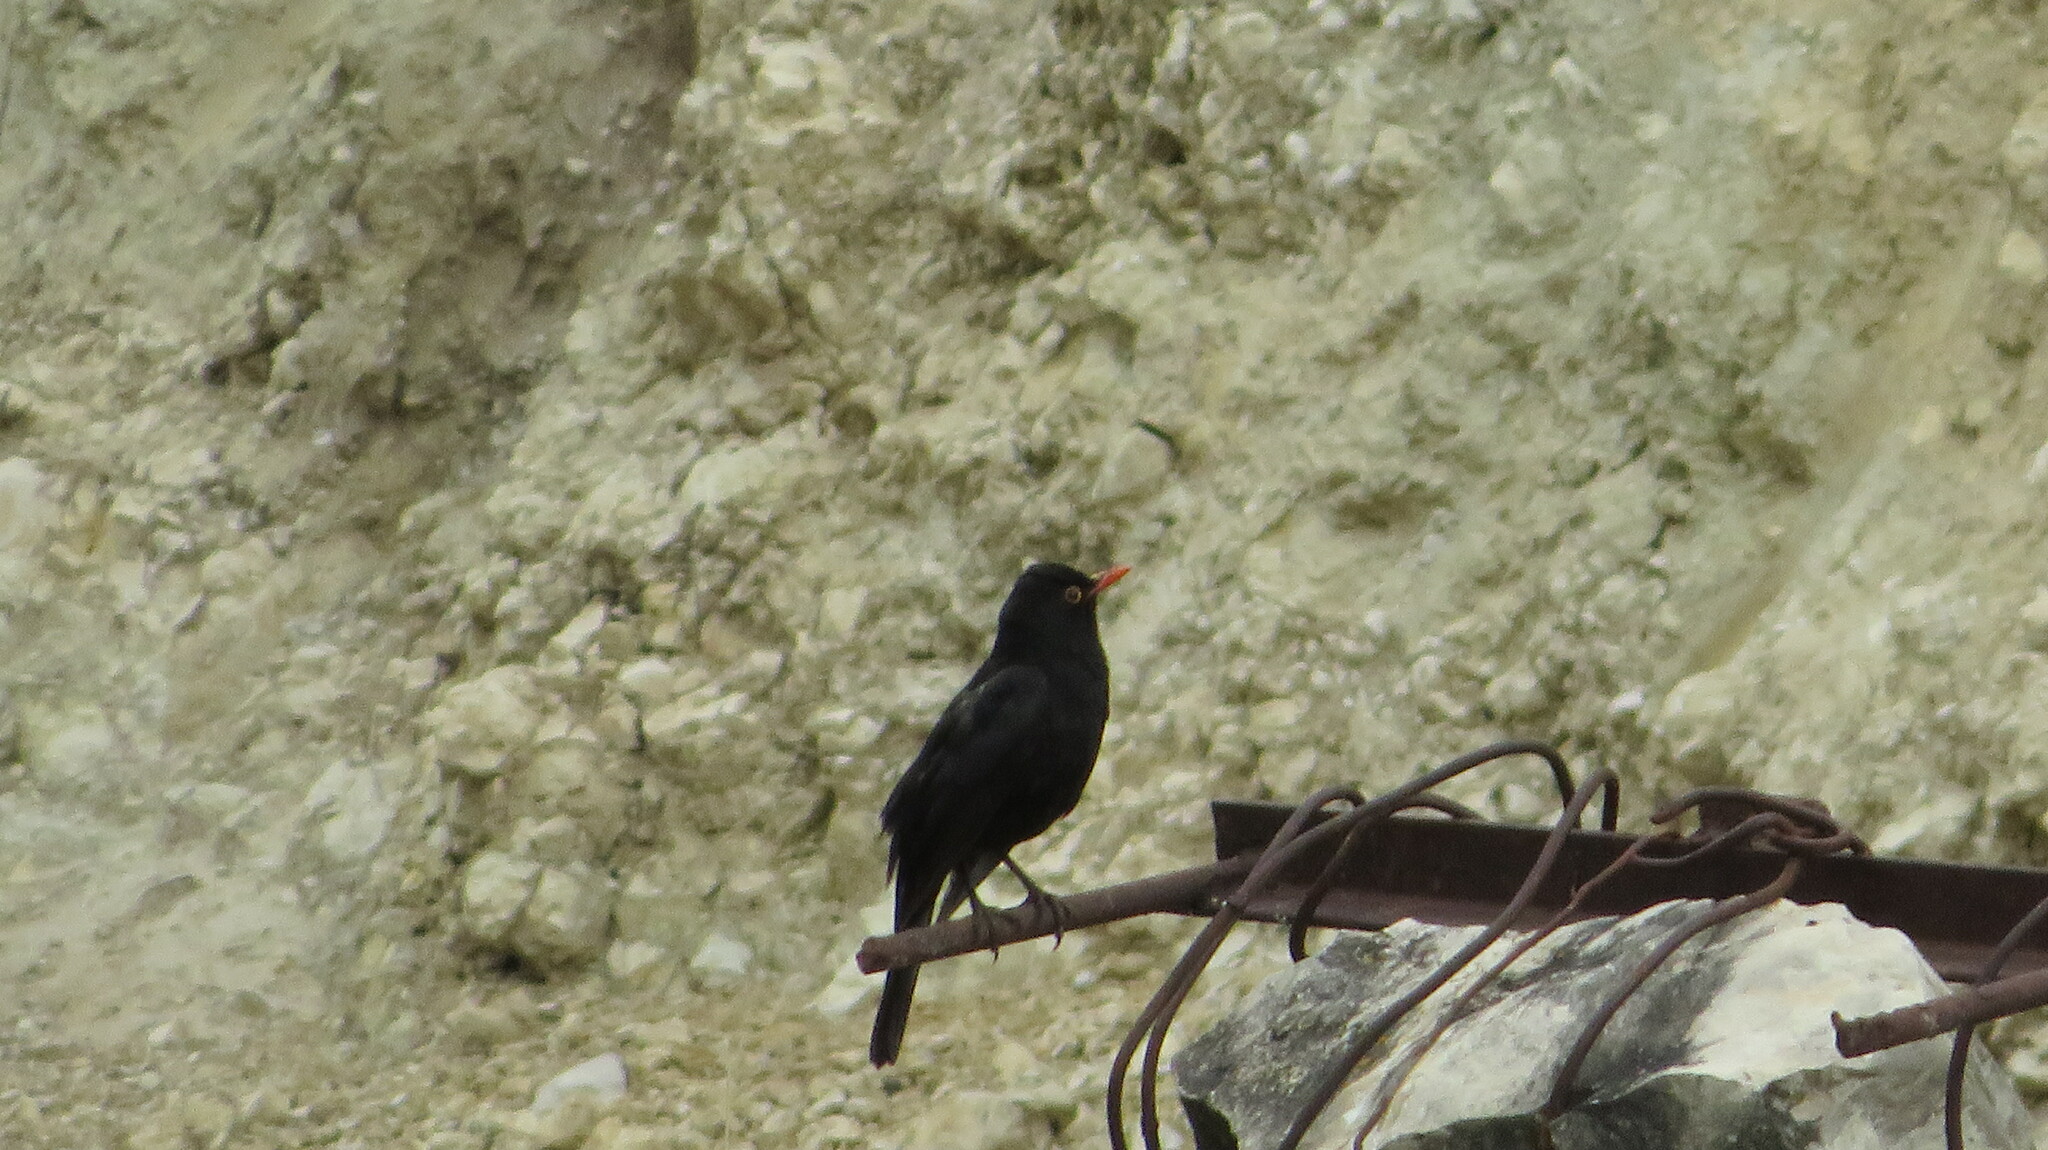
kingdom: Animalia
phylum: Chordata
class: Aves
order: Passeriformes
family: Turdidae
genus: Turdus
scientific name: Turdus merula
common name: Common blackbird
